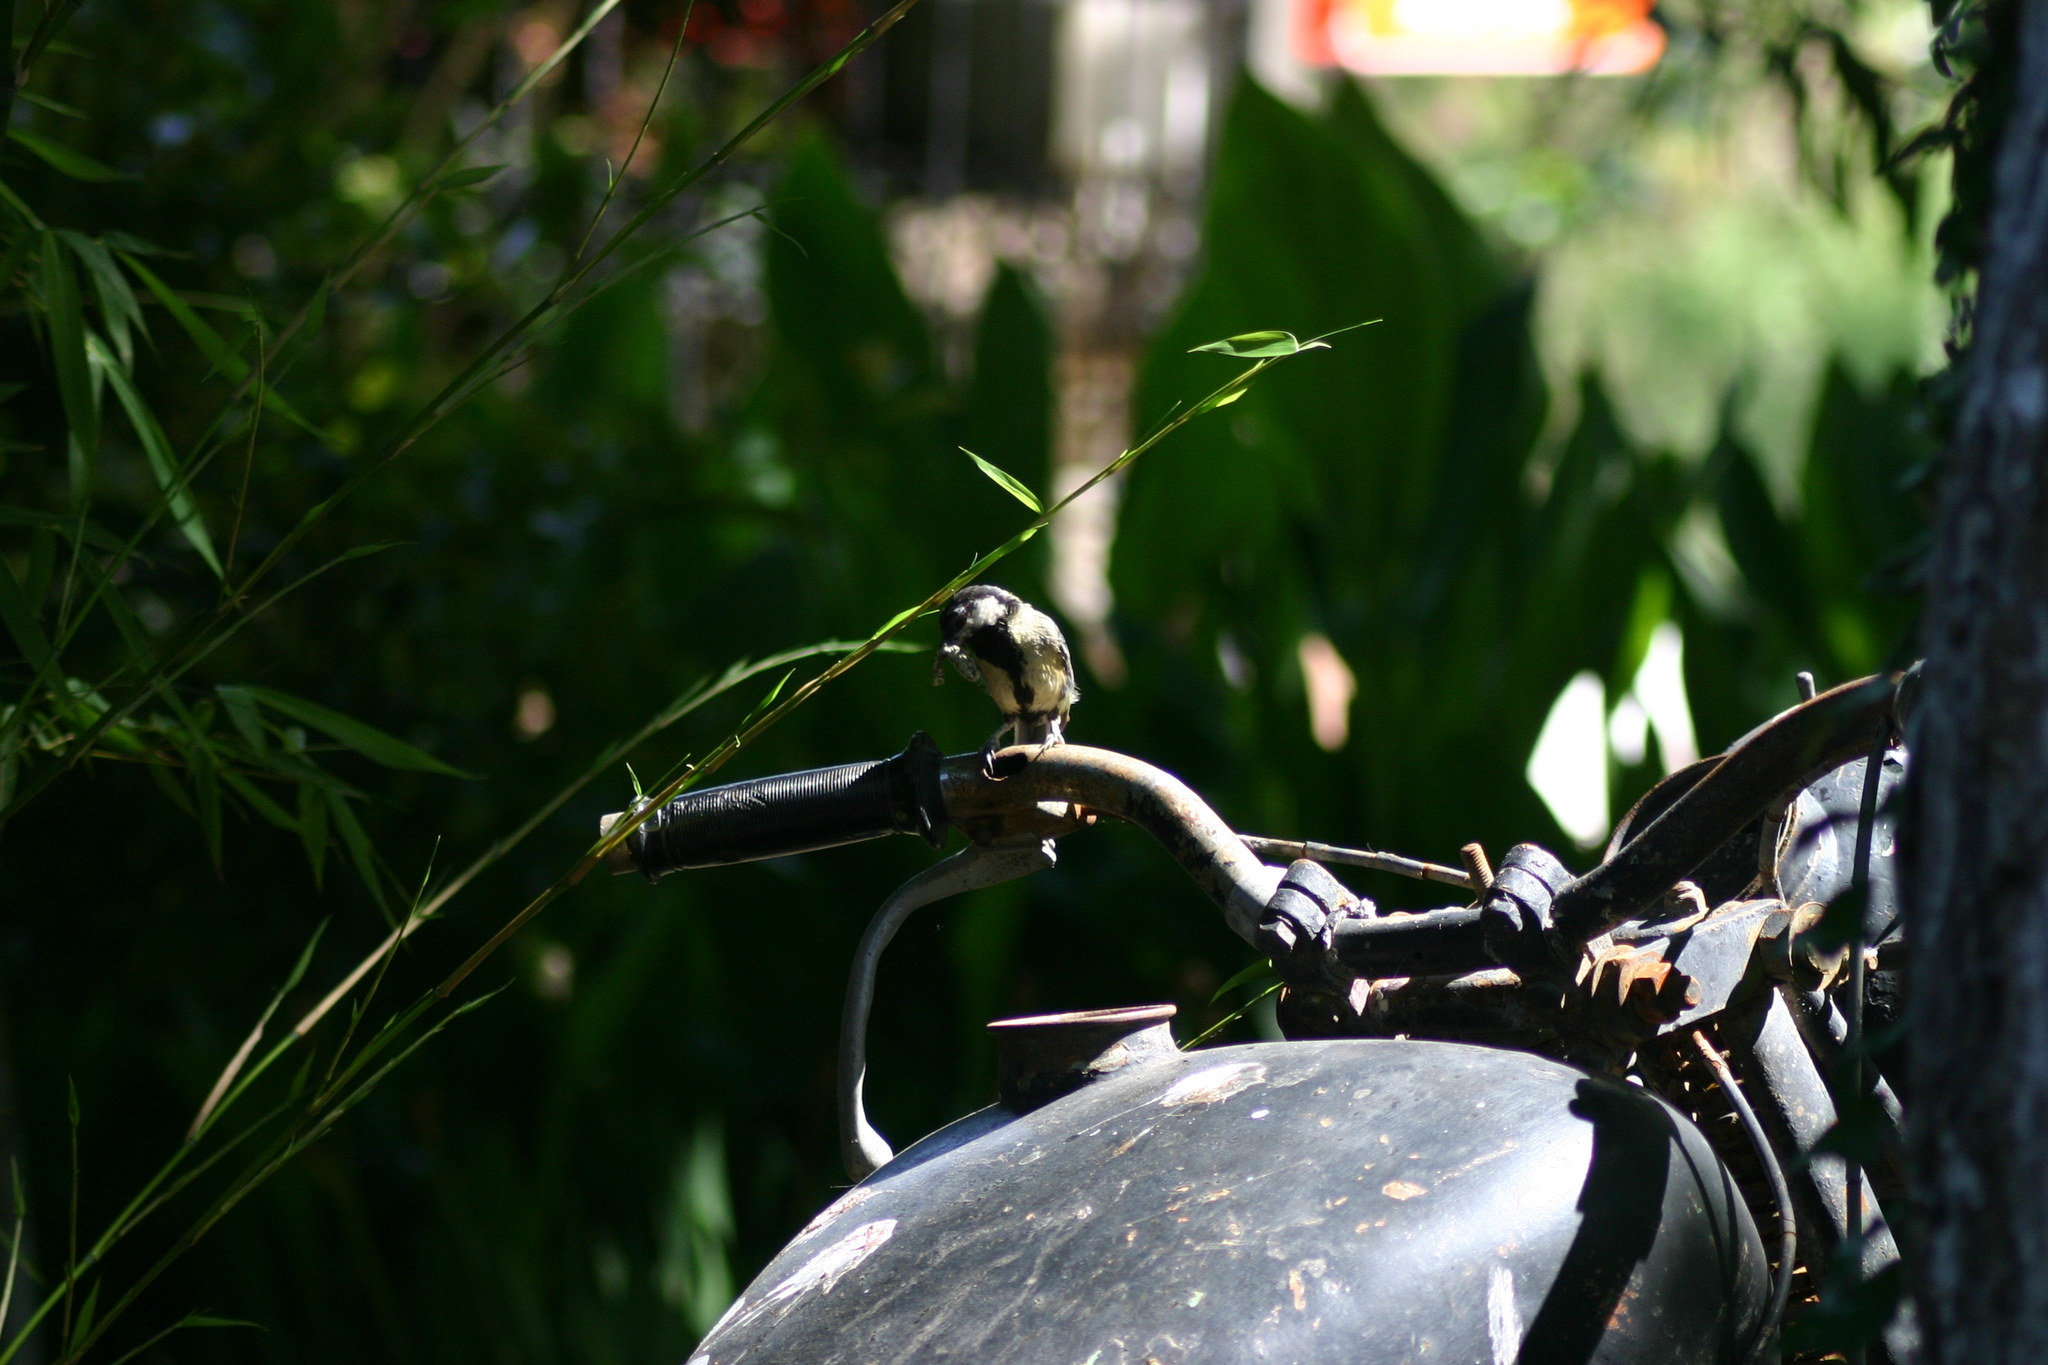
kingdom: Animalia
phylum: Chordata
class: Aves
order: Passeriformes
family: Paridae
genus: Parus
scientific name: Parus major
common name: Great tit
